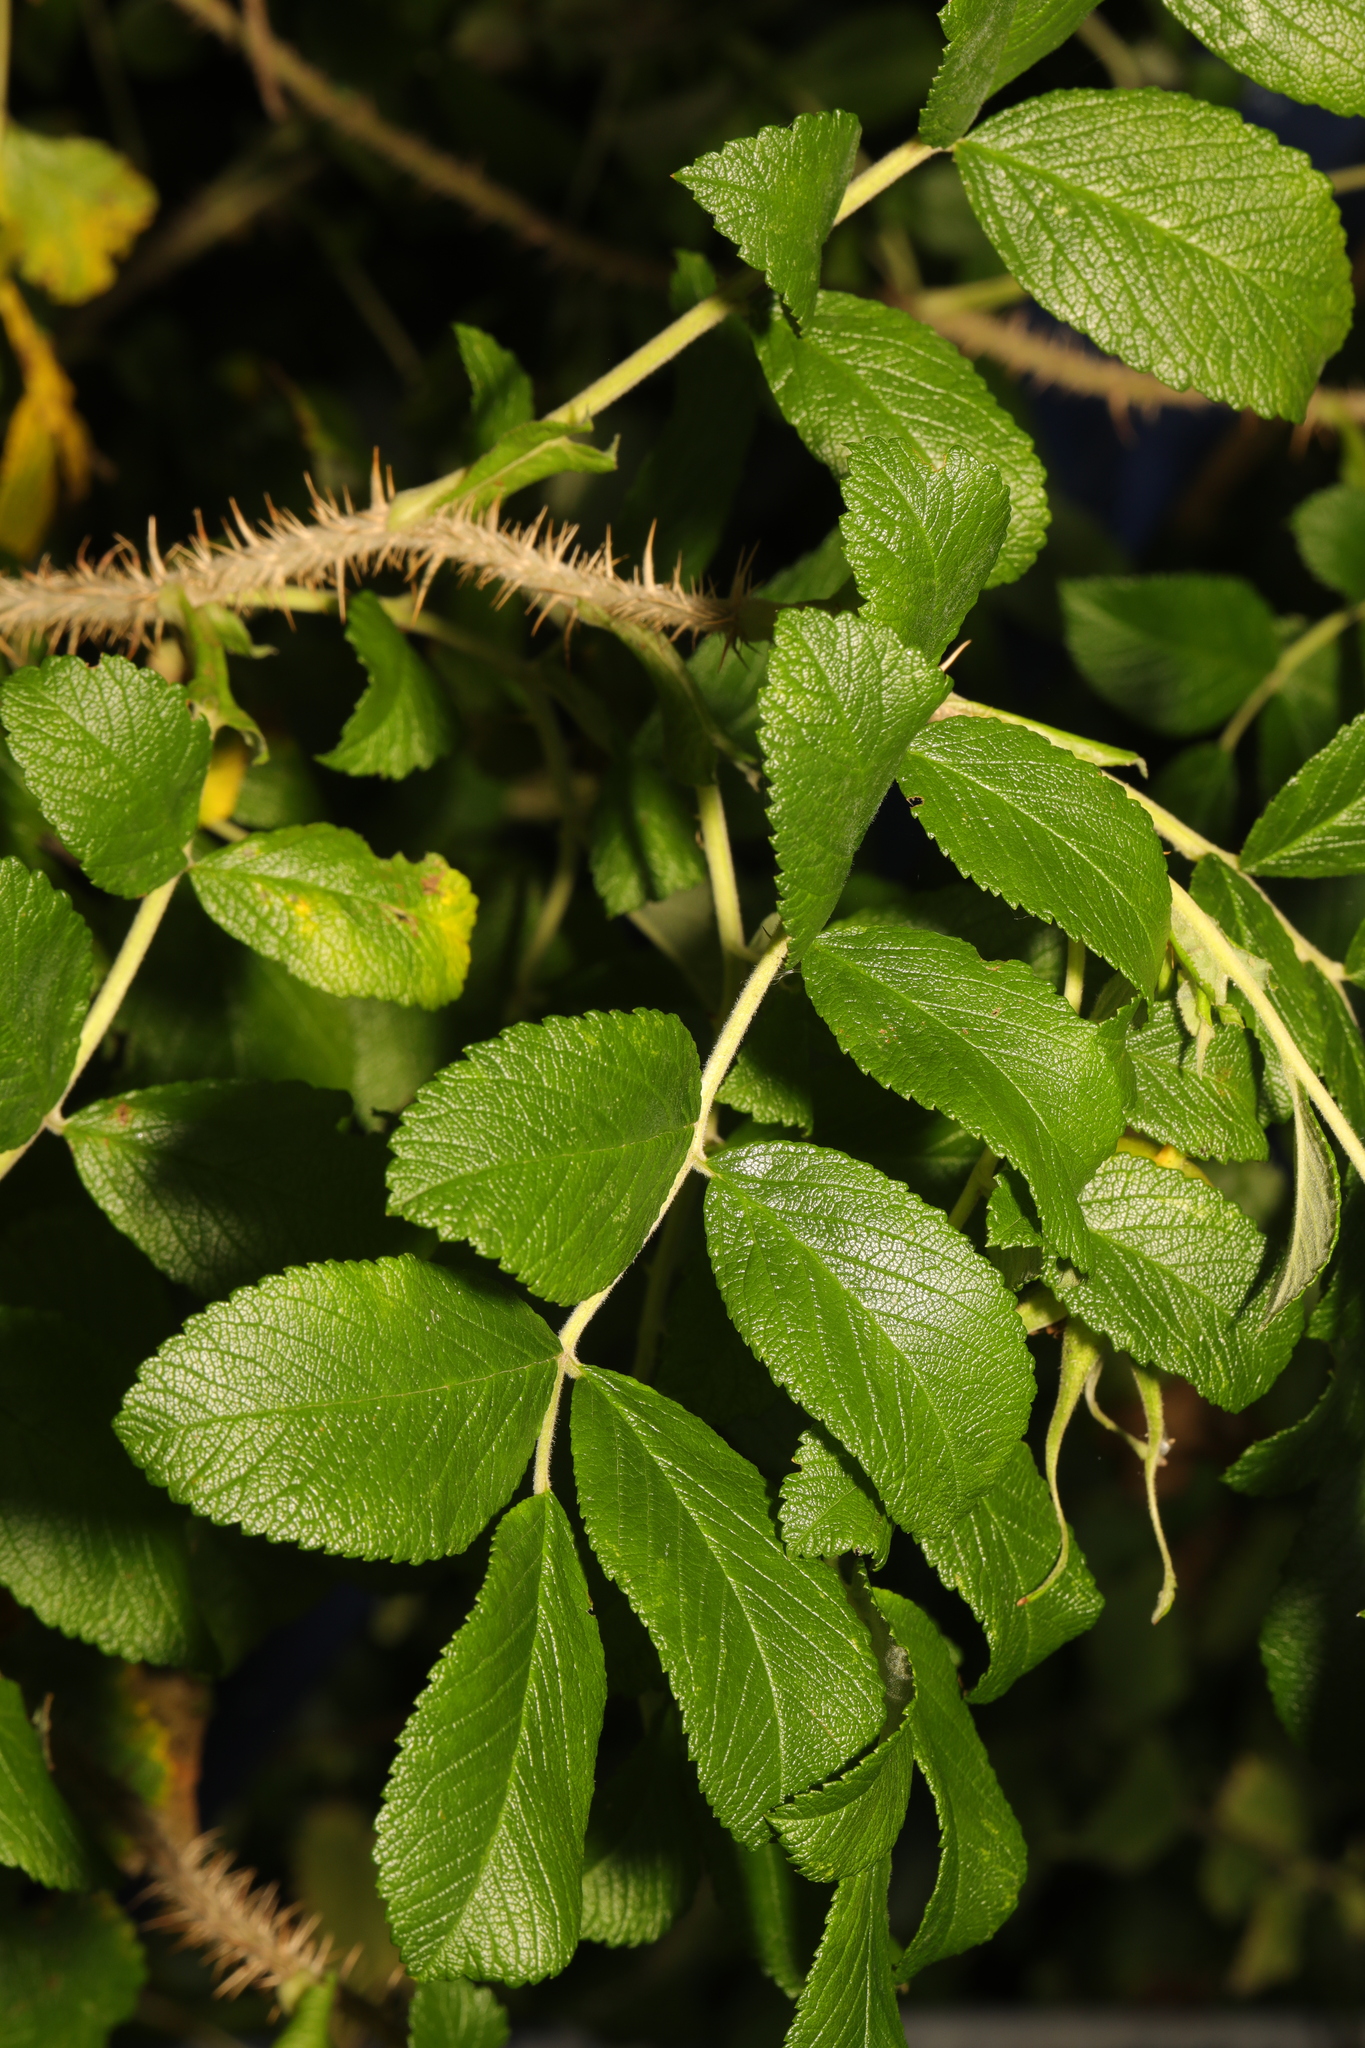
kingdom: Plantae
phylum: Tracheophyta
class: Magnoliopsida
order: Rosales
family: Rosaceae
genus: Rosa
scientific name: Rosa rugosa
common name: Japanese rose
